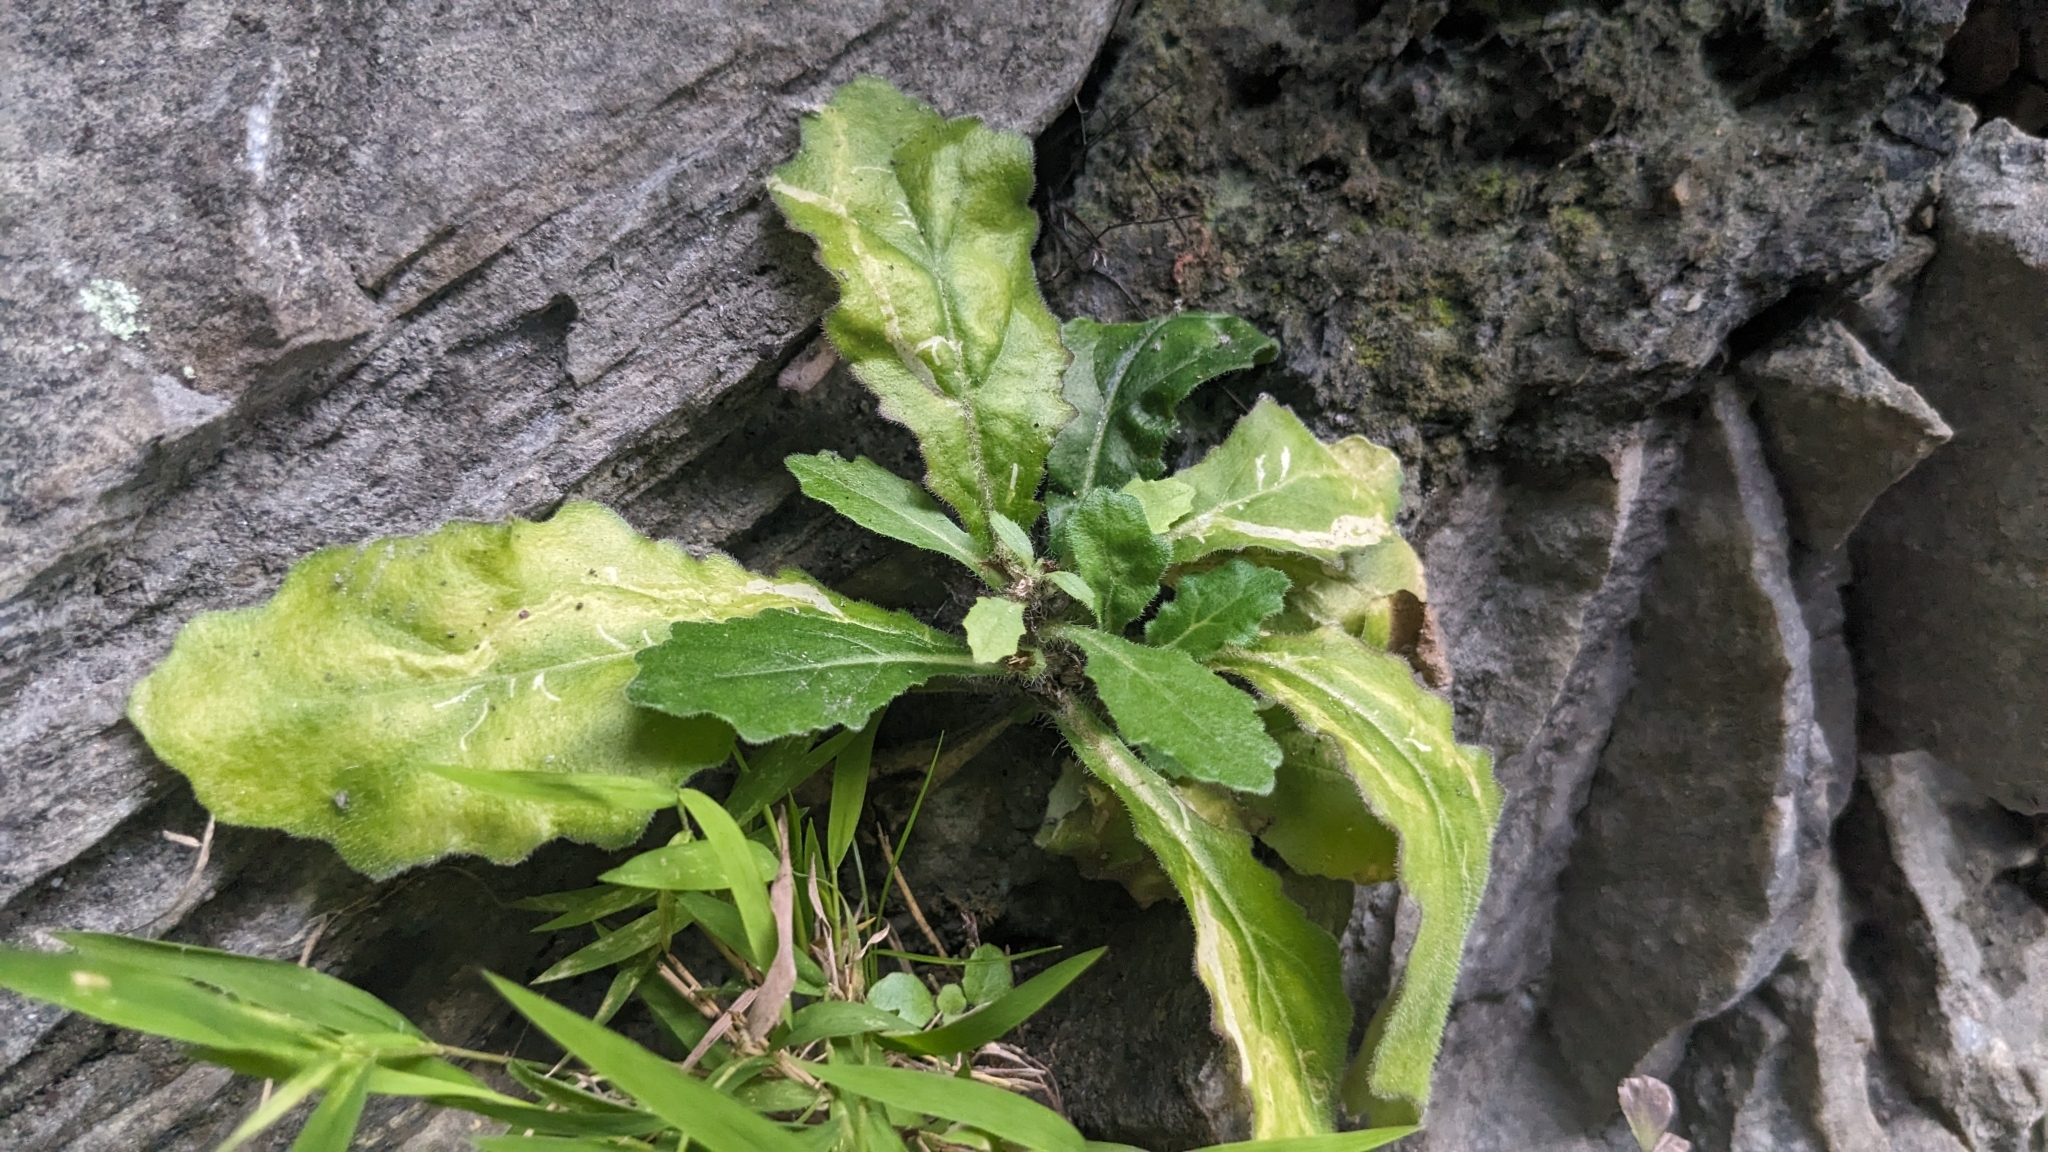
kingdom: Plantae
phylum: Tracheophyta
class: Magnoliopsida
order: Lamiales
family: Lamiaceae
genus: Ajuga
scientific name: Ajuga taiwanensis
